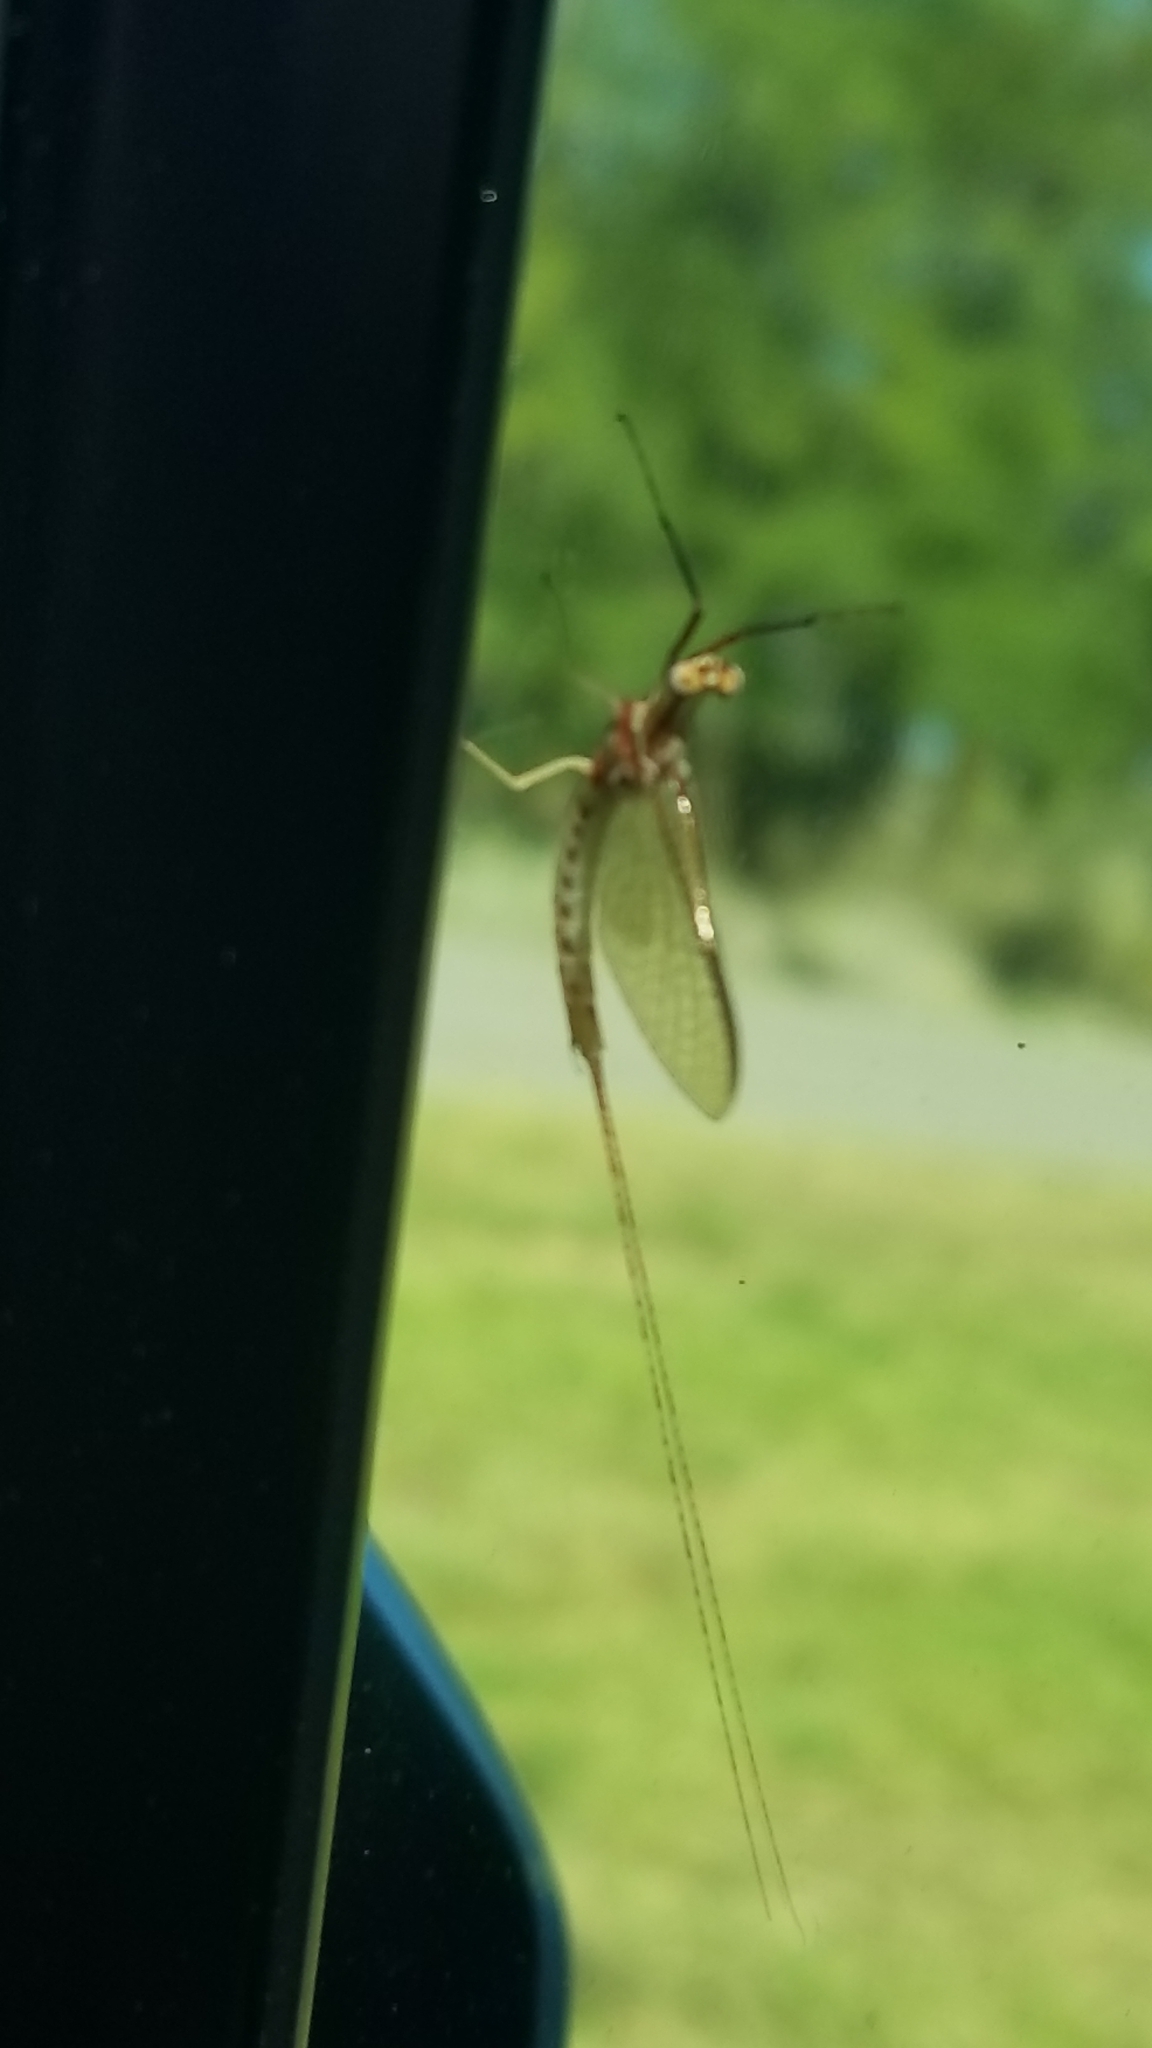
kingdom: Animalia
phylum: Arthropoda
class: Insecta
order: Ephemeroptera
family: Ephemeridae
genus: Hexagenia
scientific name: Hexagenia limbata
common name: Giant mayfly
